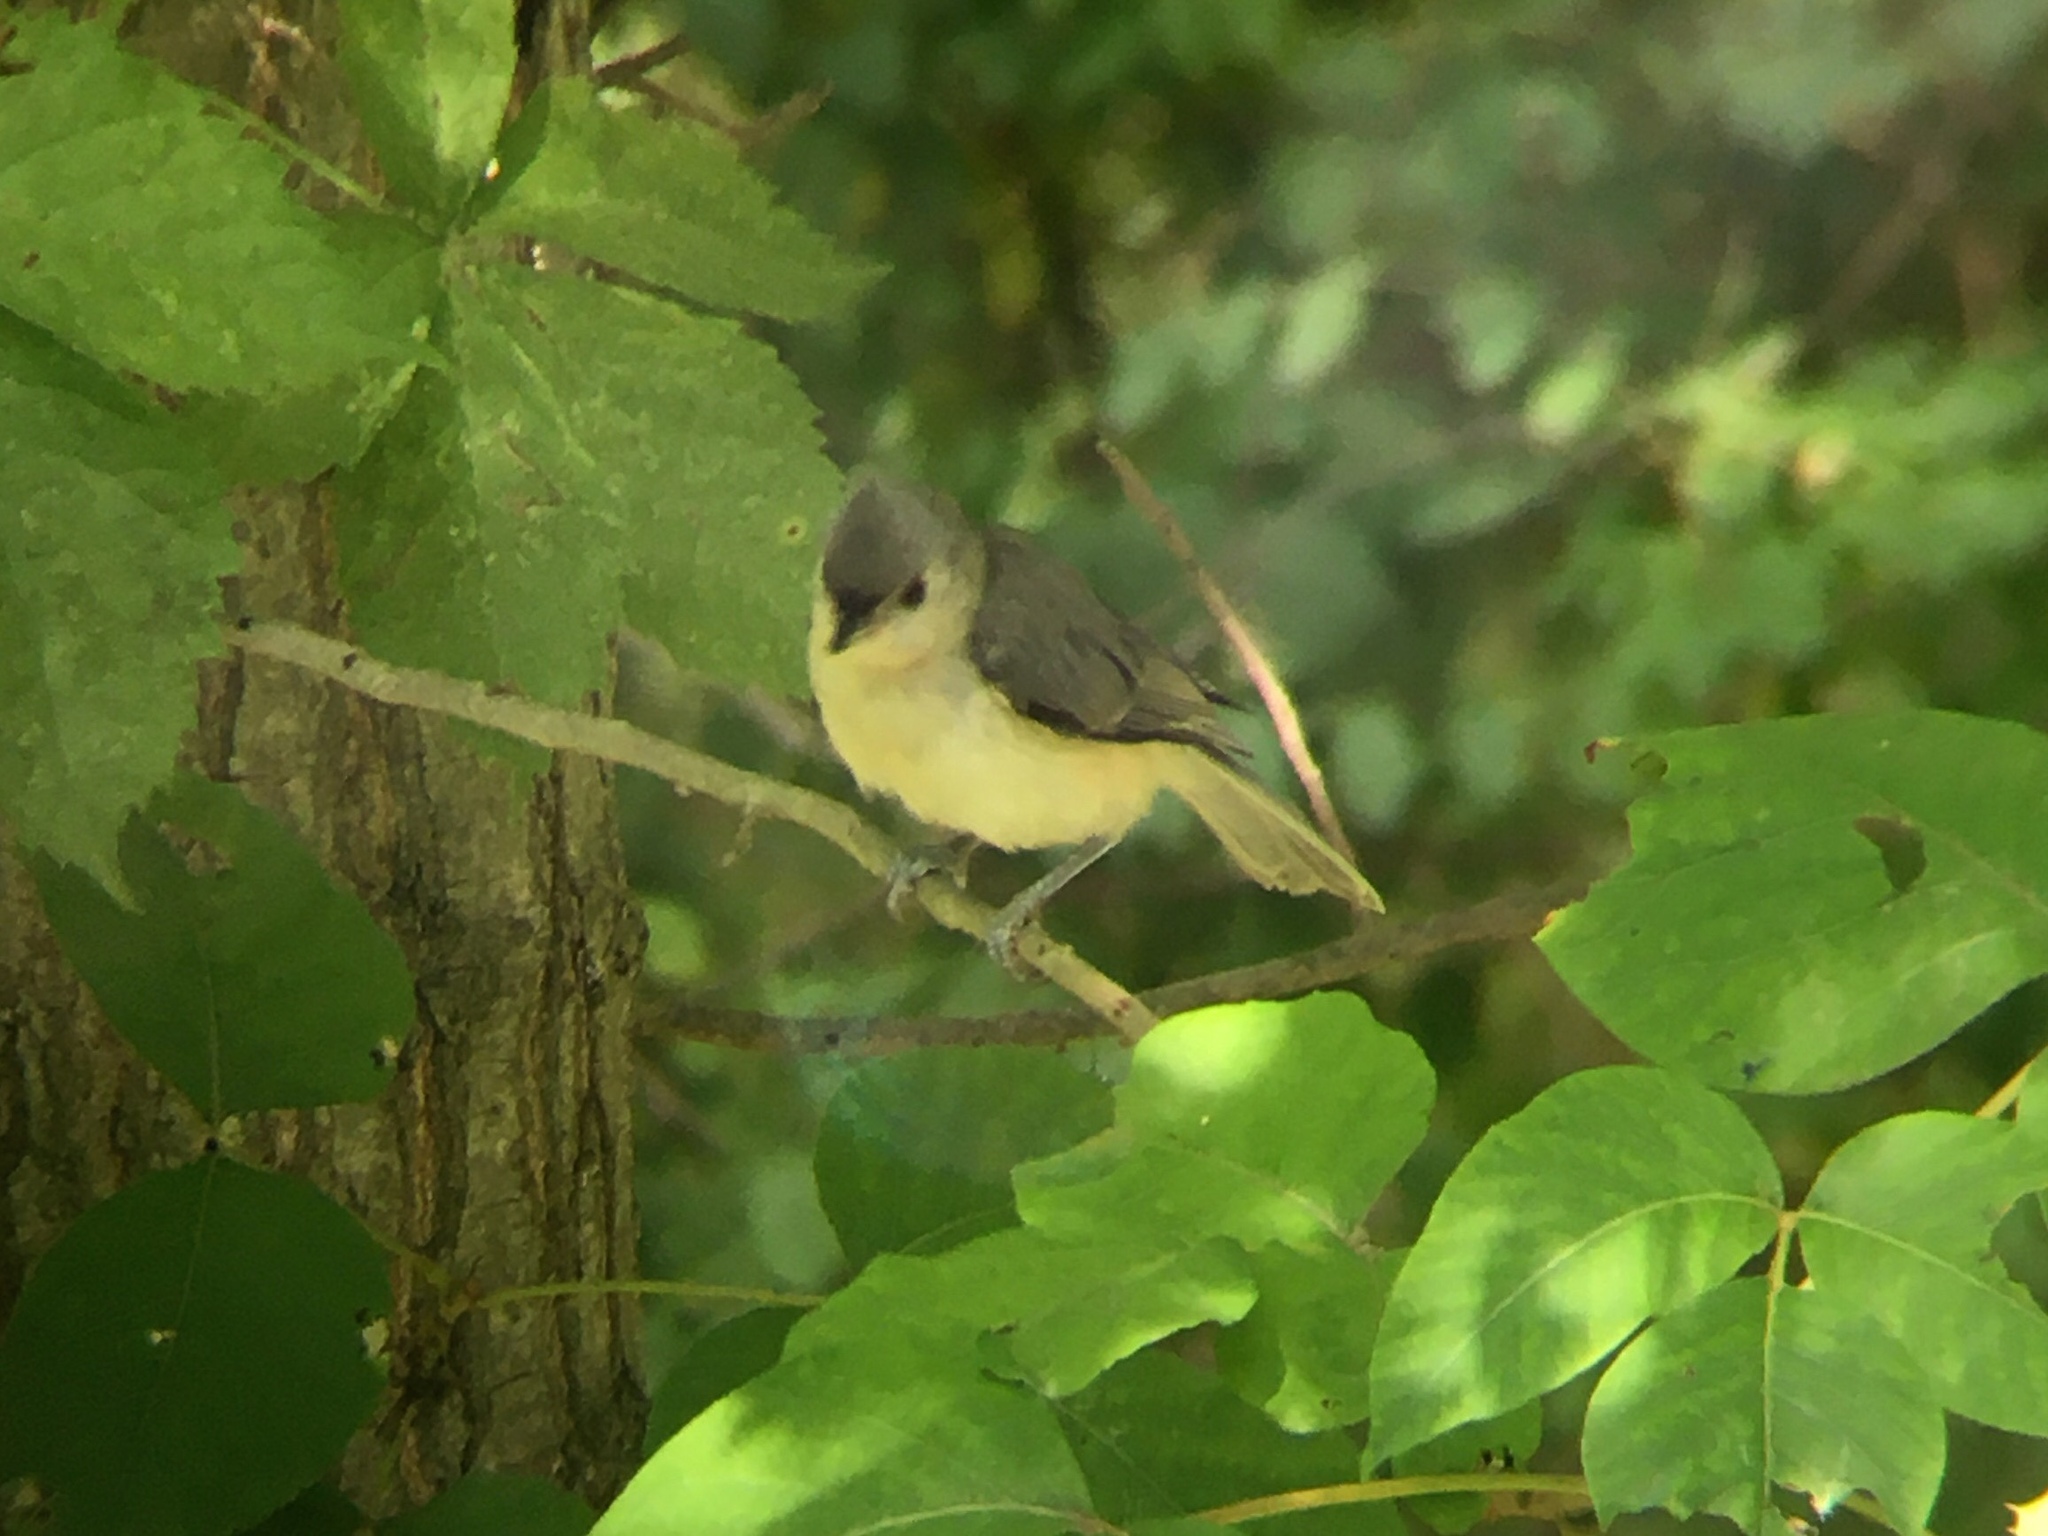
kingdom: Animalia
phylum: Chordata
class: Aves
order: Passeriformes
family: Paridae
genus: Baeolophus
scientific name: Baeolophus bicolor
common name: Tufted titmouse
